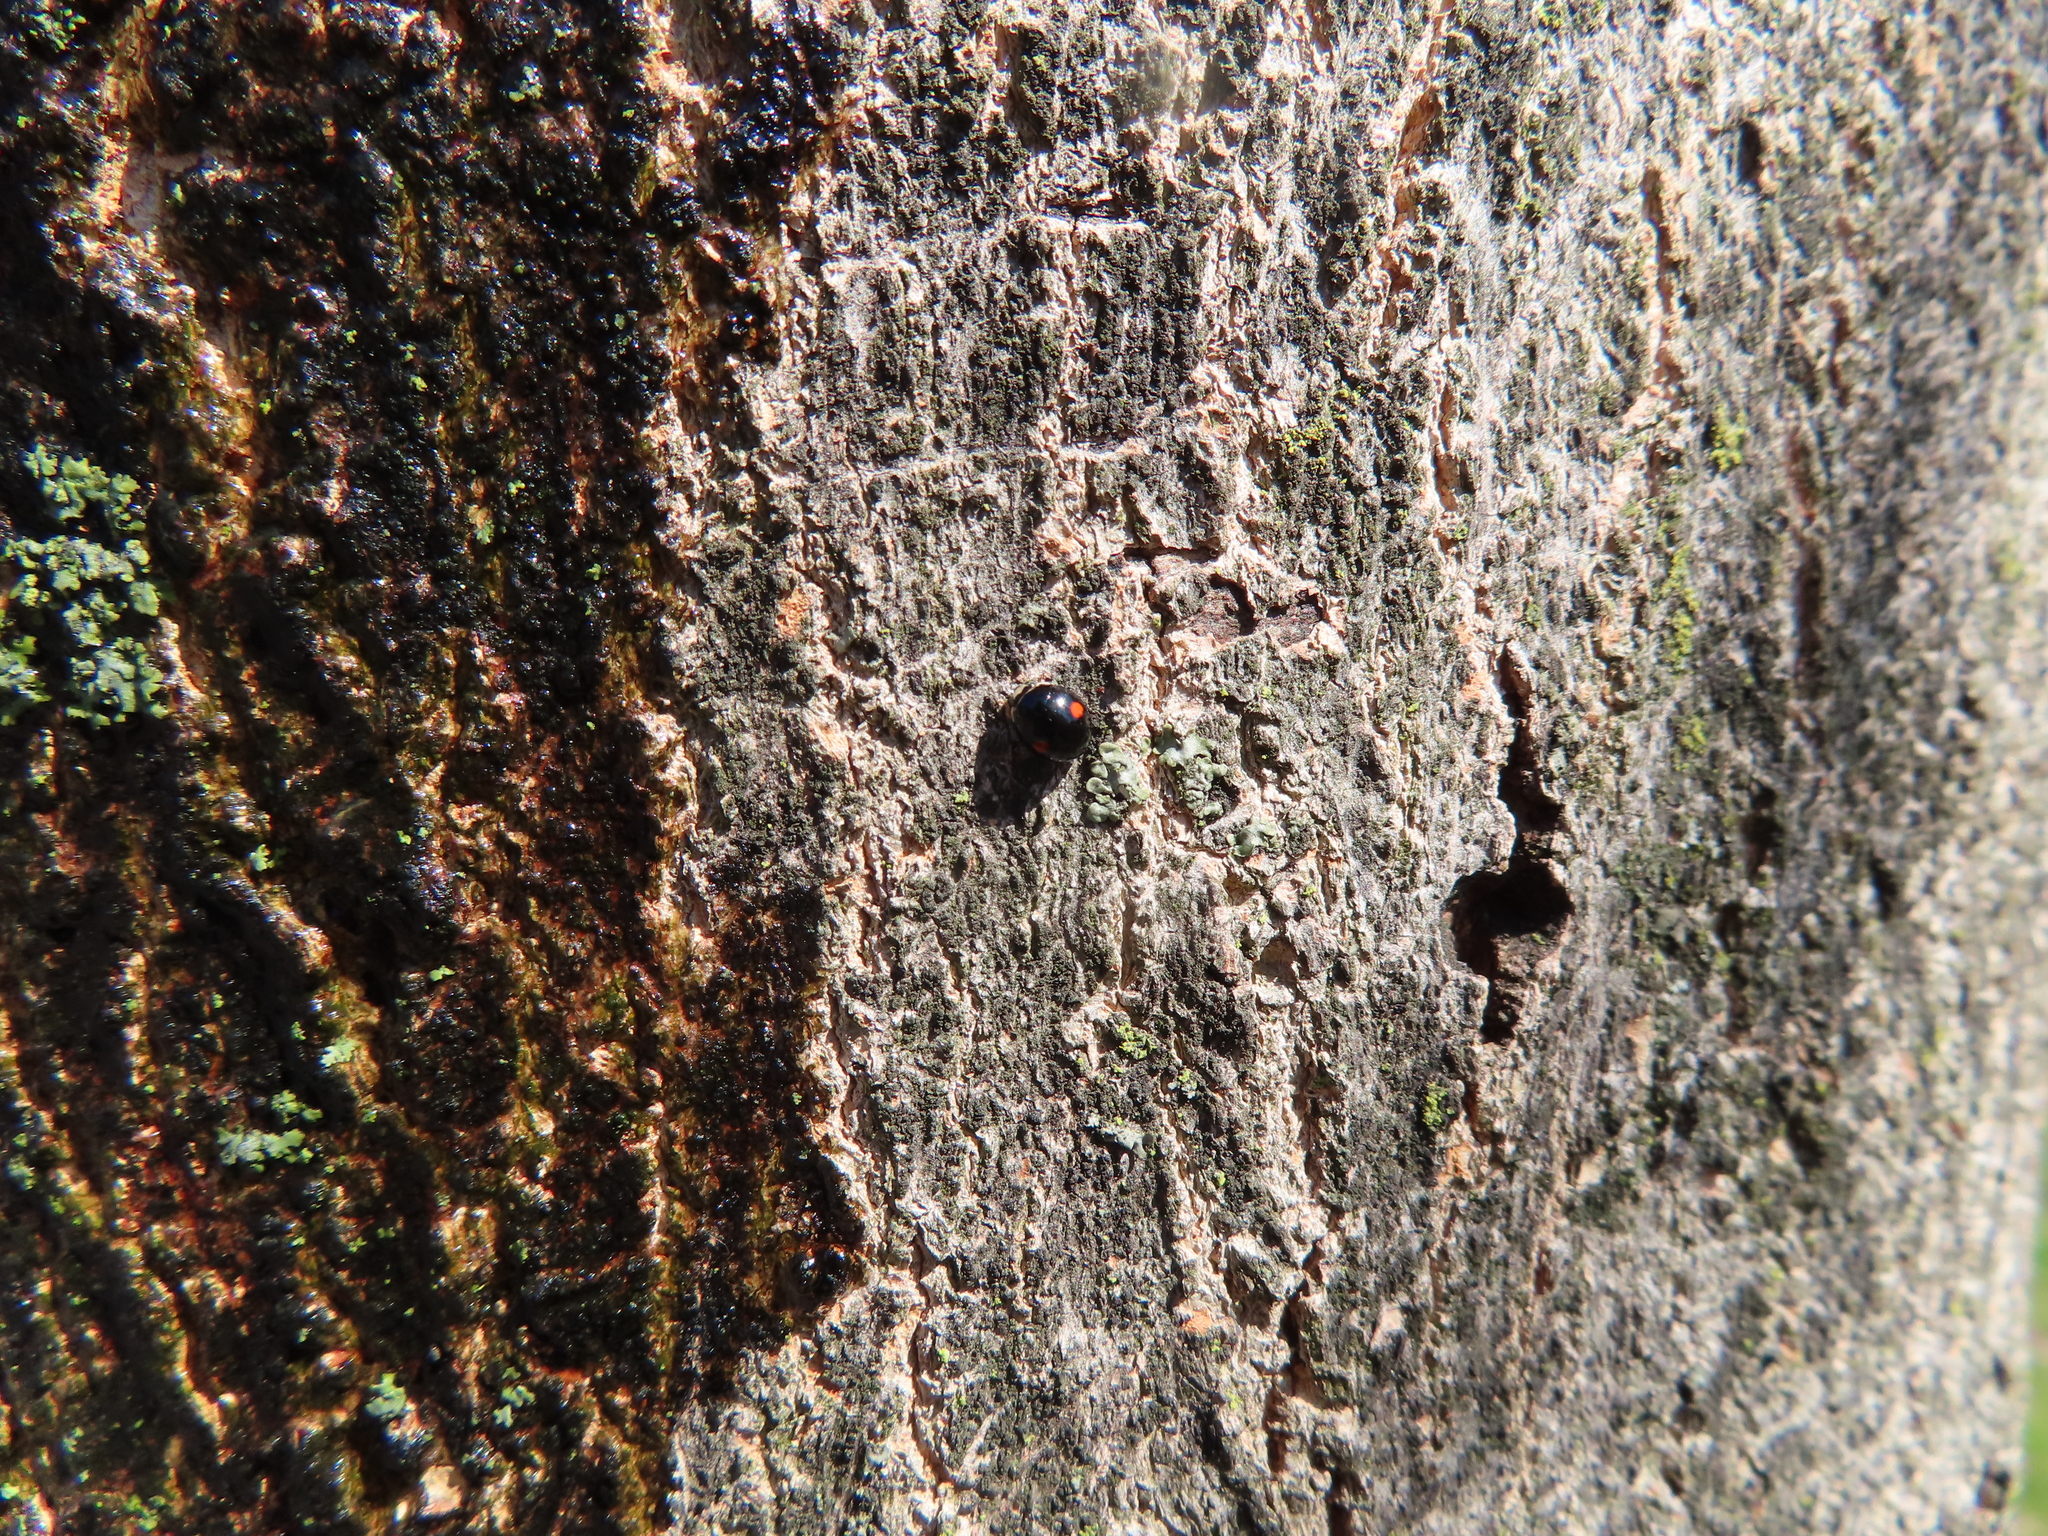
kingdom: Animalia
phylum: Arthropoda
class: Insecta
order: Coleoptera
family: Coccinellidae
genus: Chilocorus
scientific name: Chilocorus stigma
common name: Twicestabbed lady beetle
